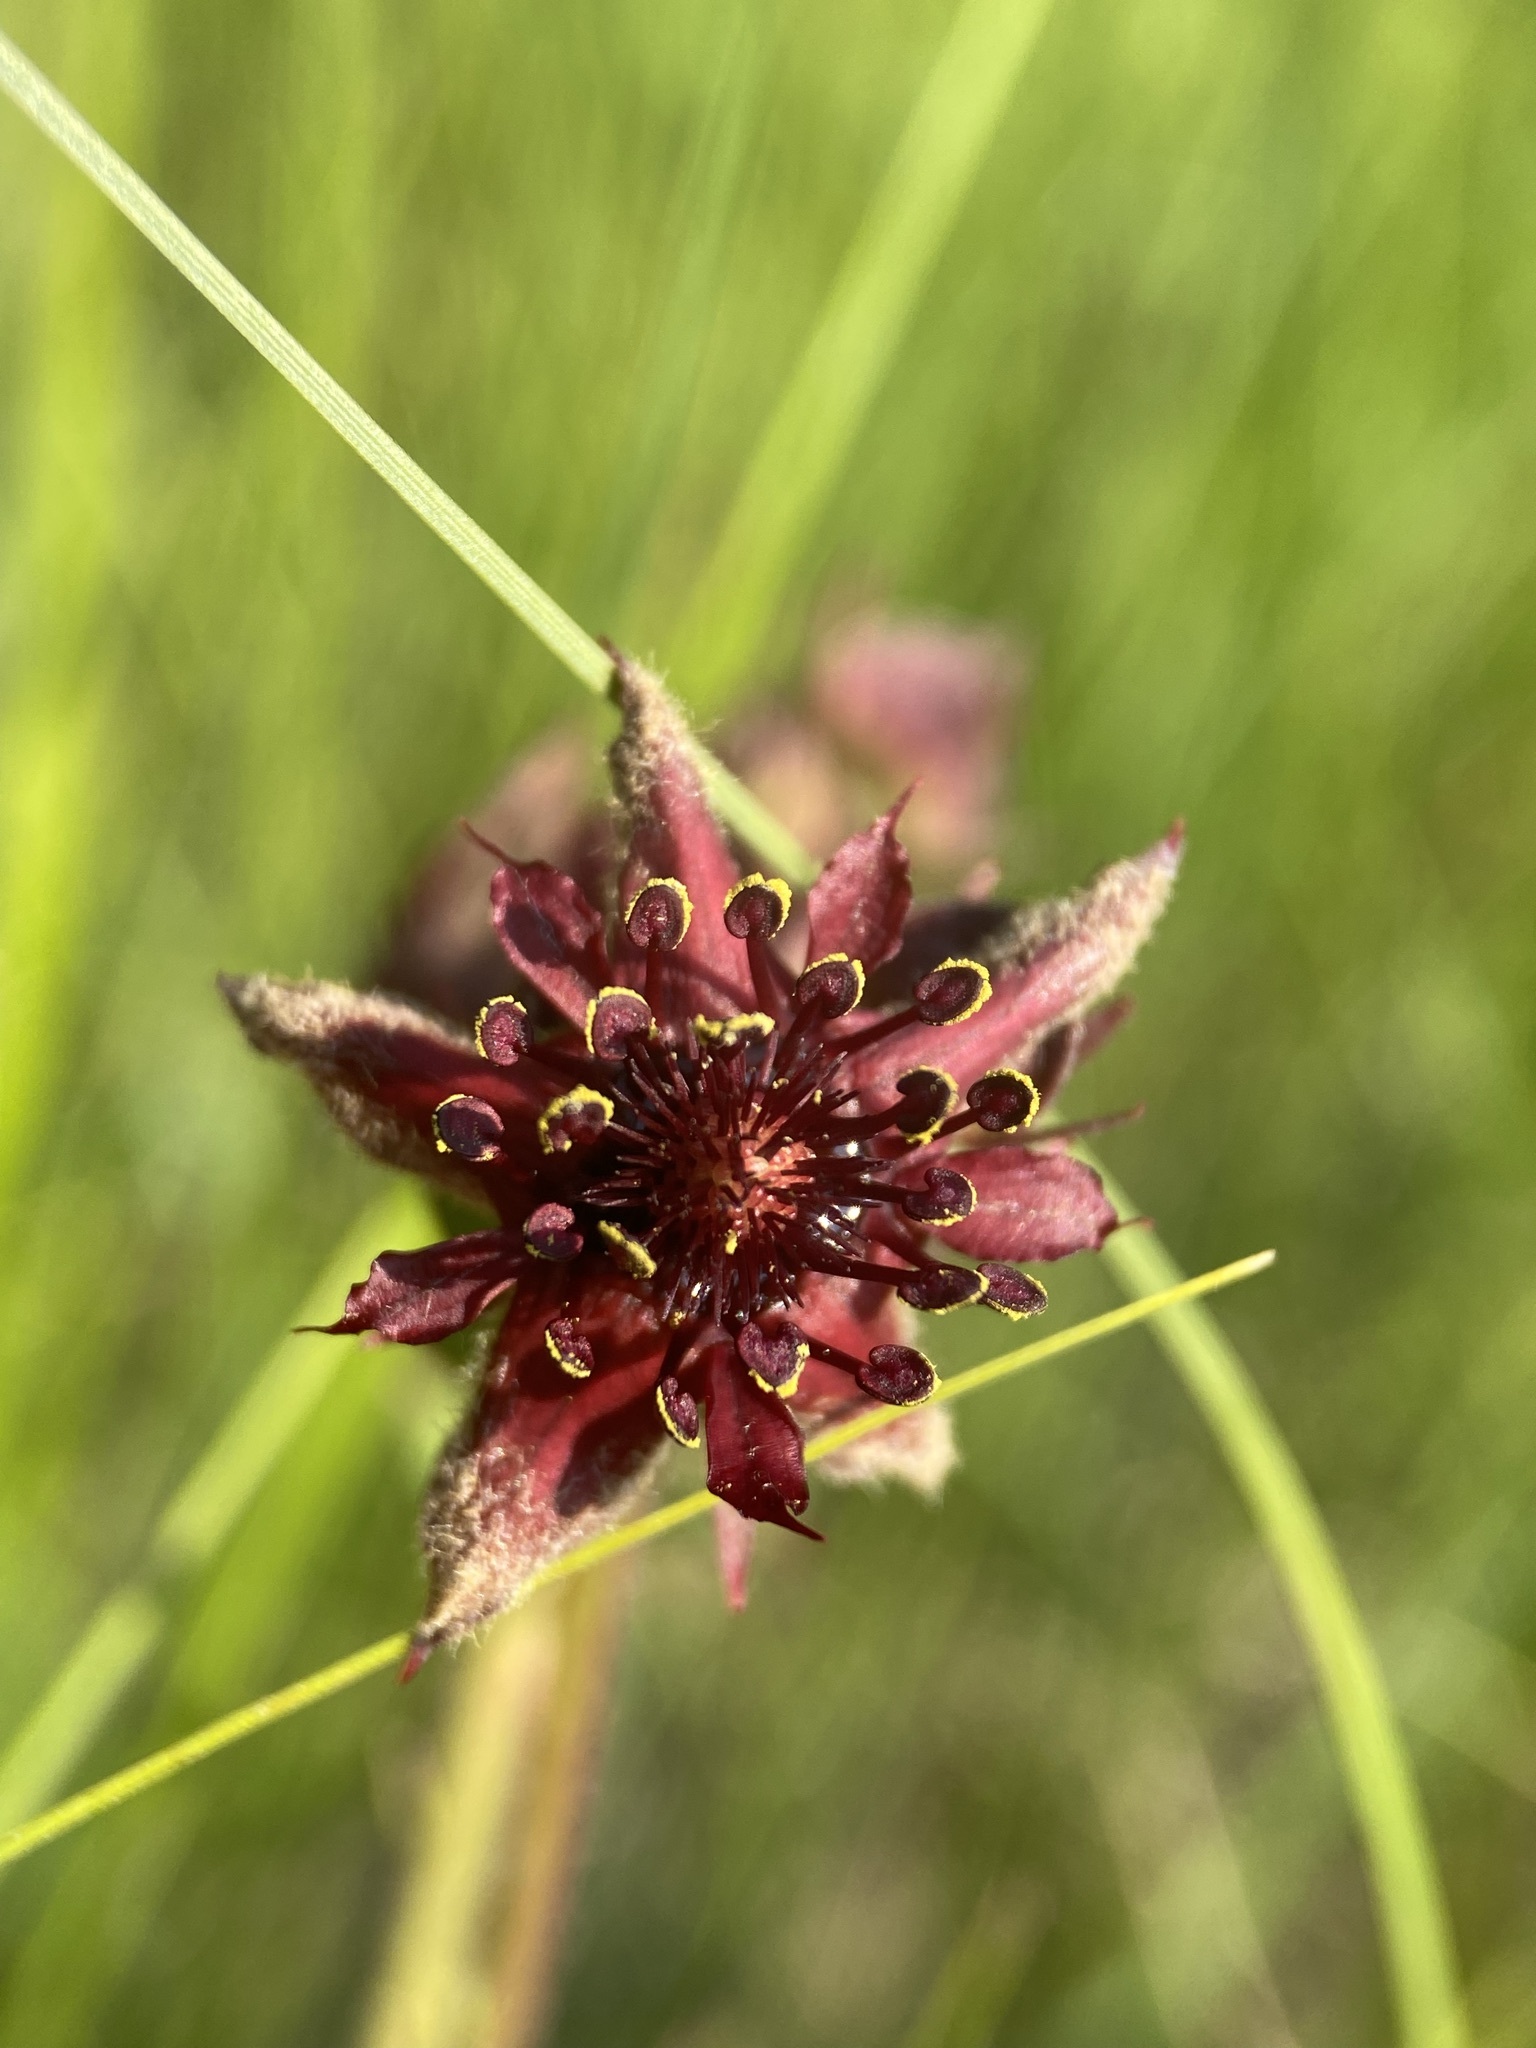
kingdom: Plantae
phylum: Tracheophyta
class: Magnoliopsida
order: Rosales
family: Rosaceae
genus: Comarum
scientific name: Comarum palustre
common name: Marsh cinquefoil
